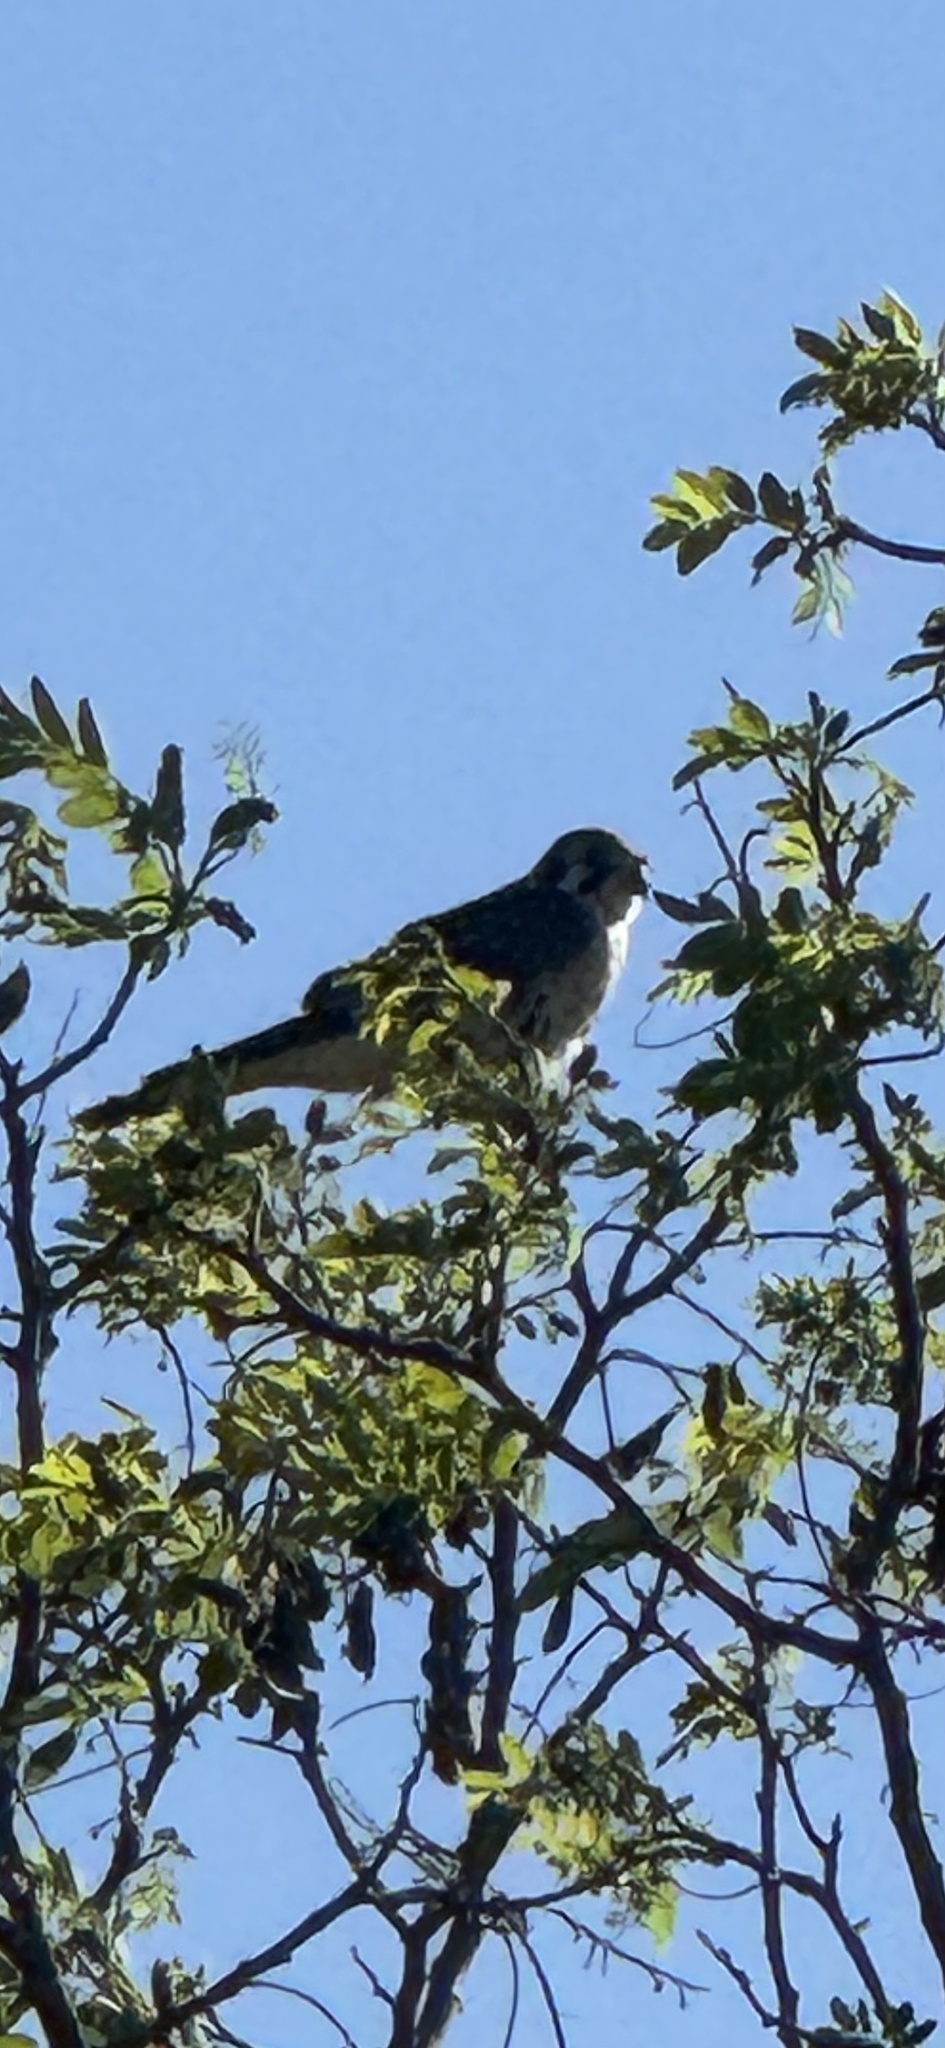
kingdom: Animalia
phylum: Chordata
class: Aves
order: Falconiformes
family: Falconidae
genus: Falco
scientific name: Falco sparverius
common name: American kestrel
